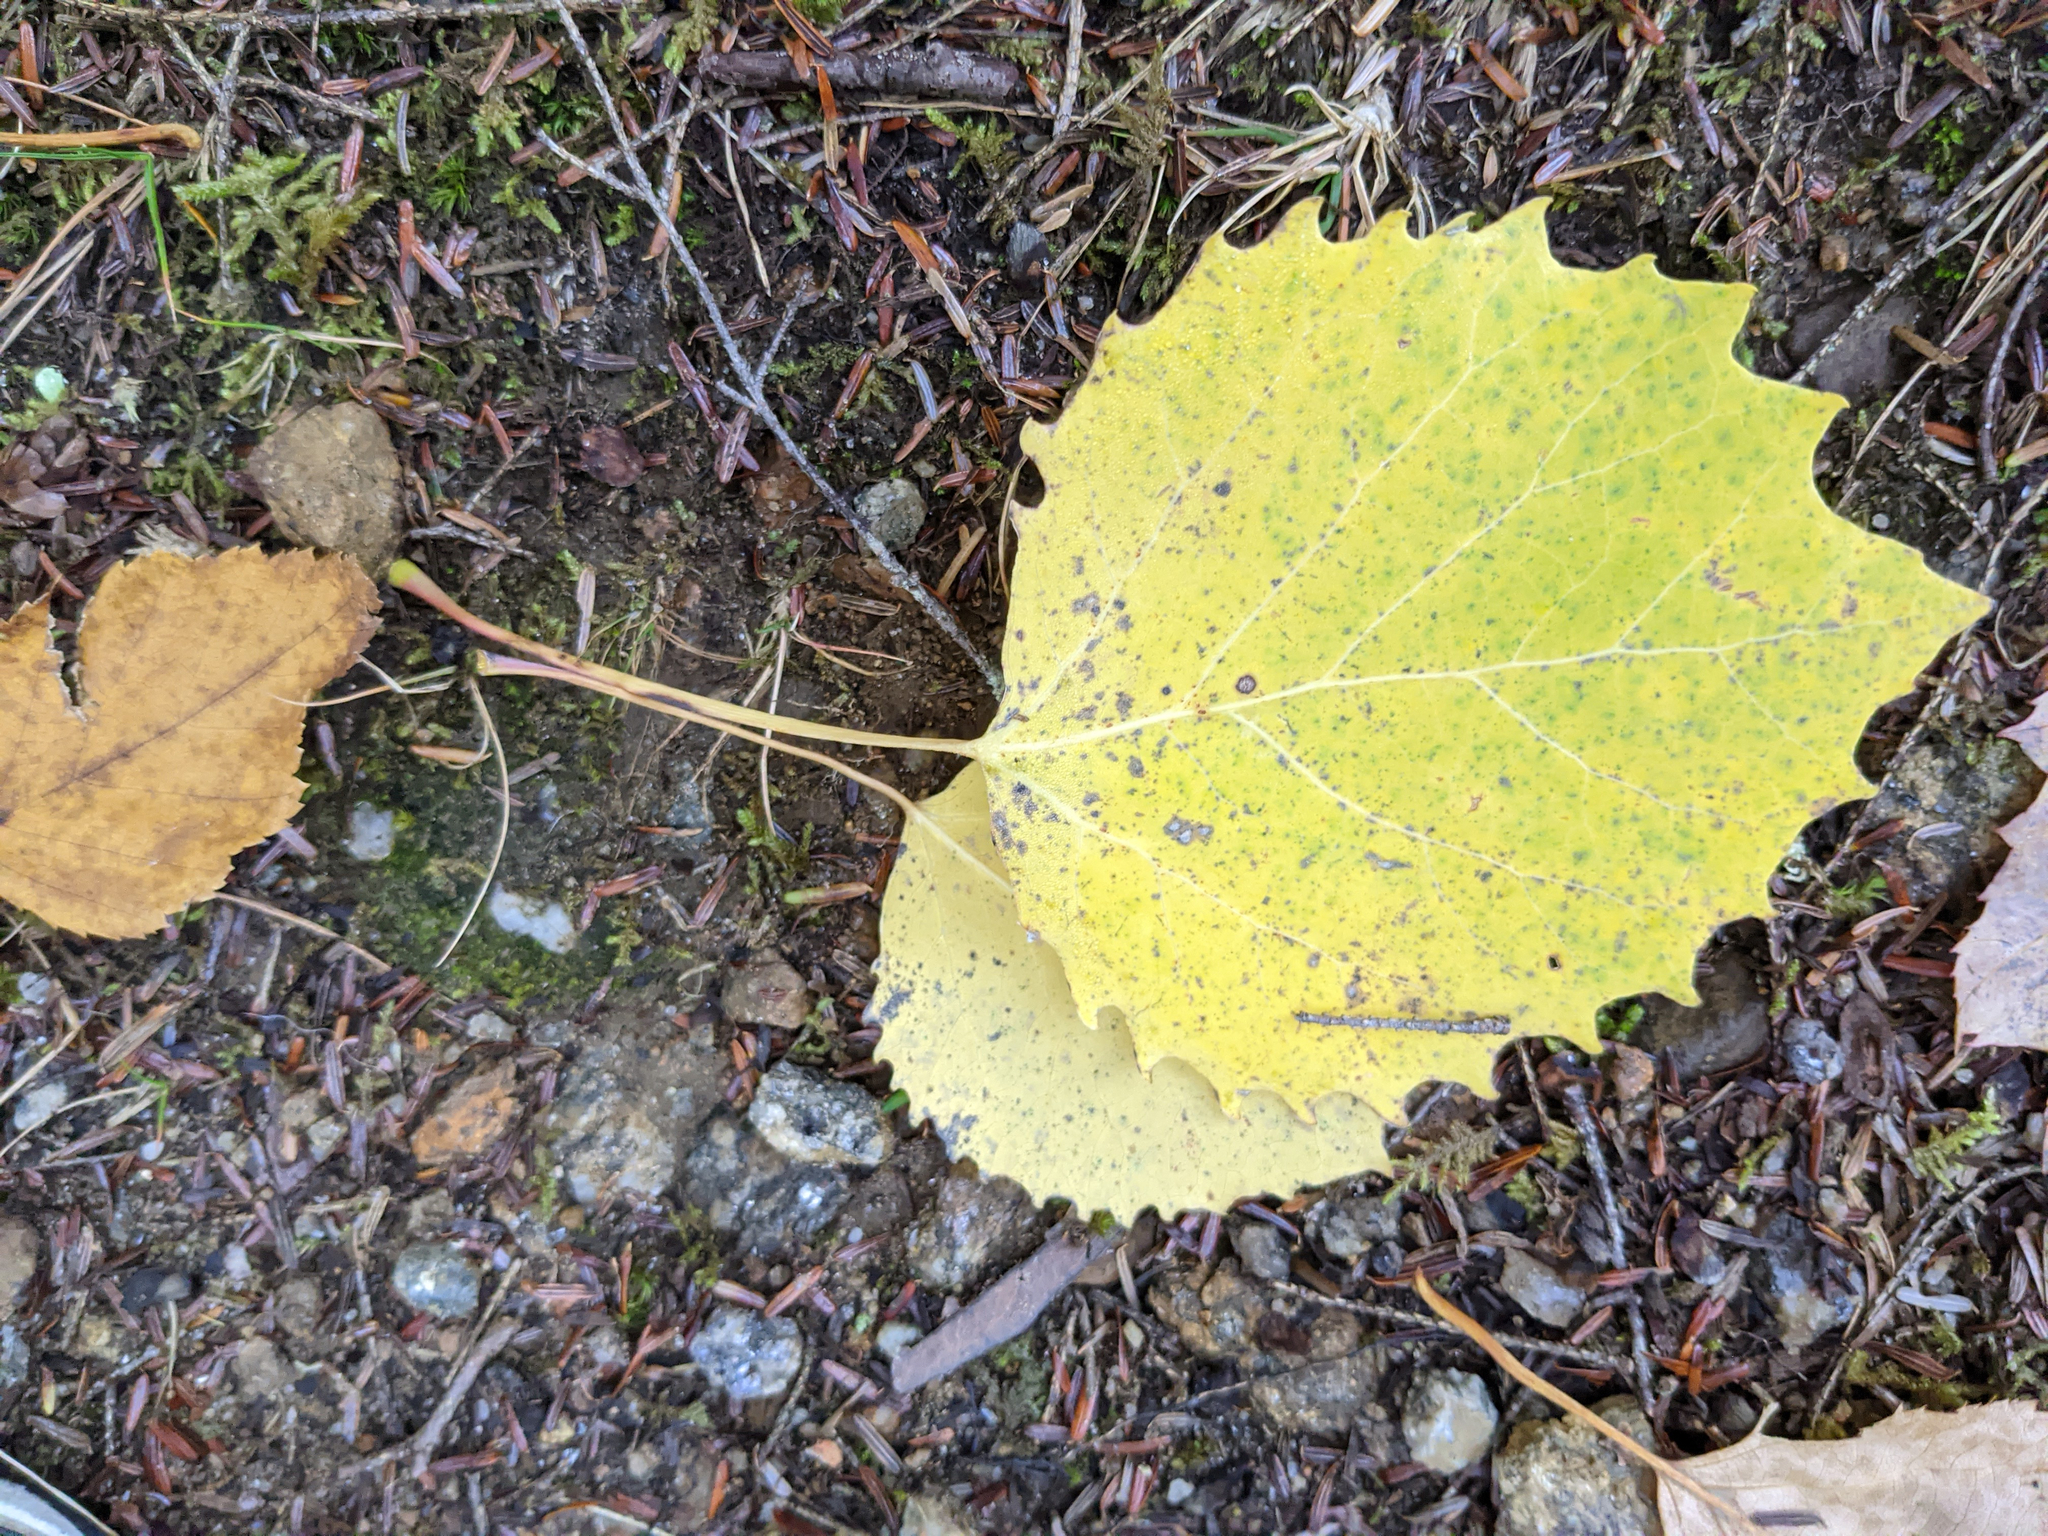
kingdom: Plantae
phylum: Tracheophyta
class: Magnoliopsida
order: Malpighiales
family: Salicaceae
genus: Populus
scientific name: Populus grandidentata
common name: Bigtooth aspen
